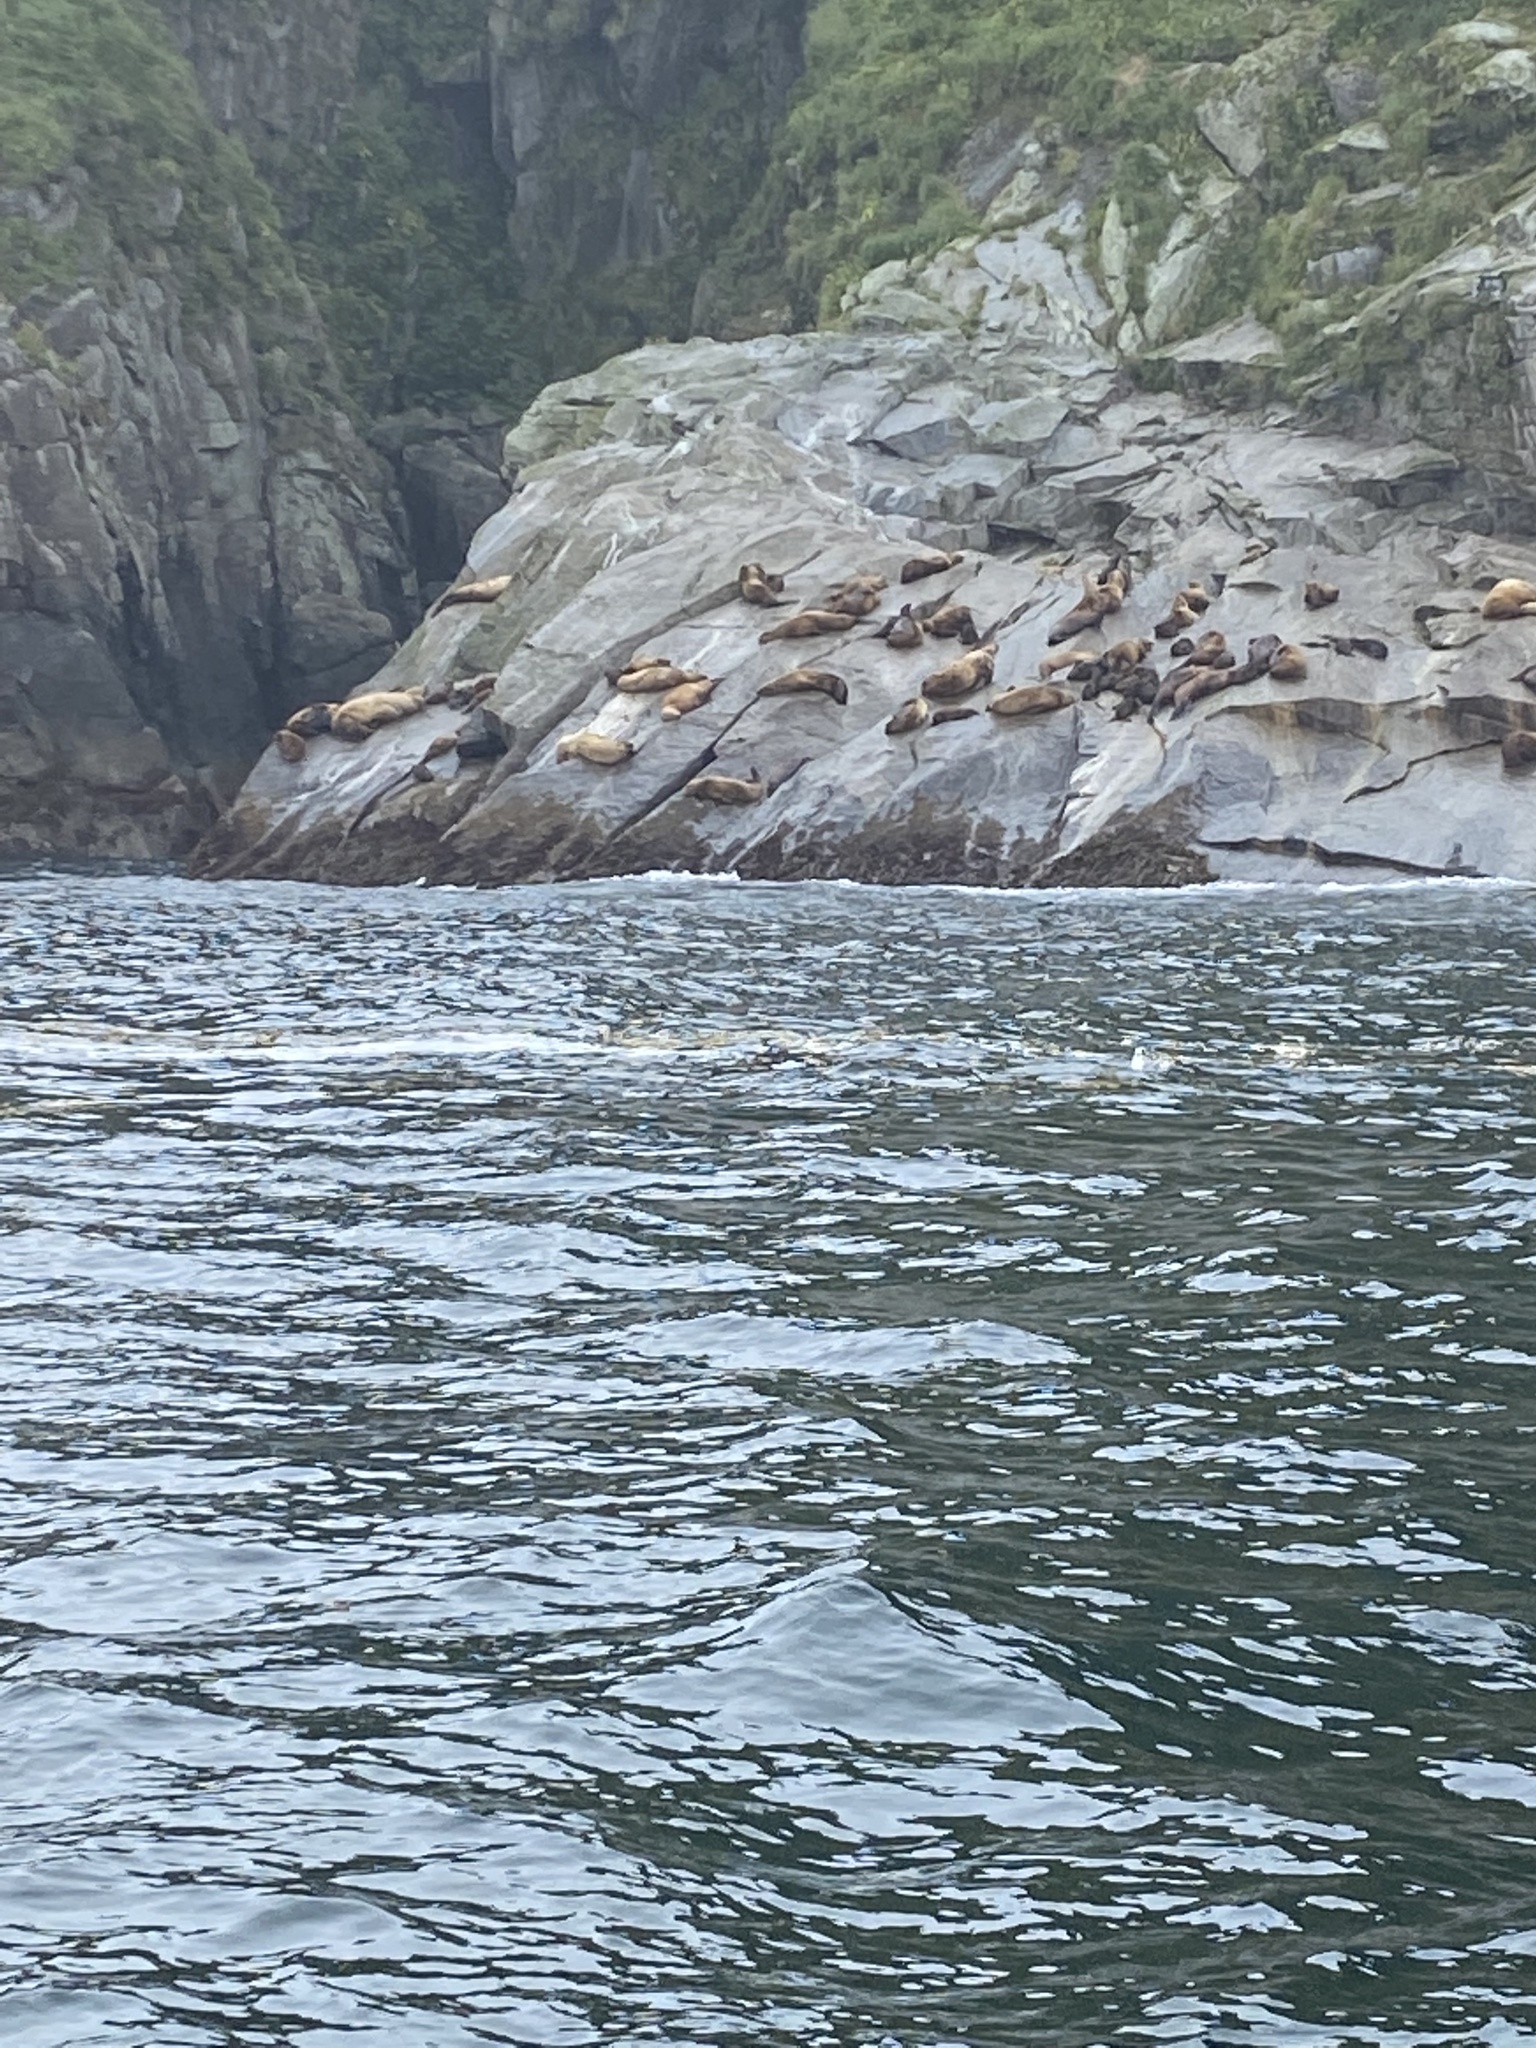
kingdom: Animalia
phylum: Chordata
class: Mammalia
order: Carnivora
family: Otariidae
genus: Eumetopias
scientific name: Eumetopias jubatus
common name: Steller sea lion
